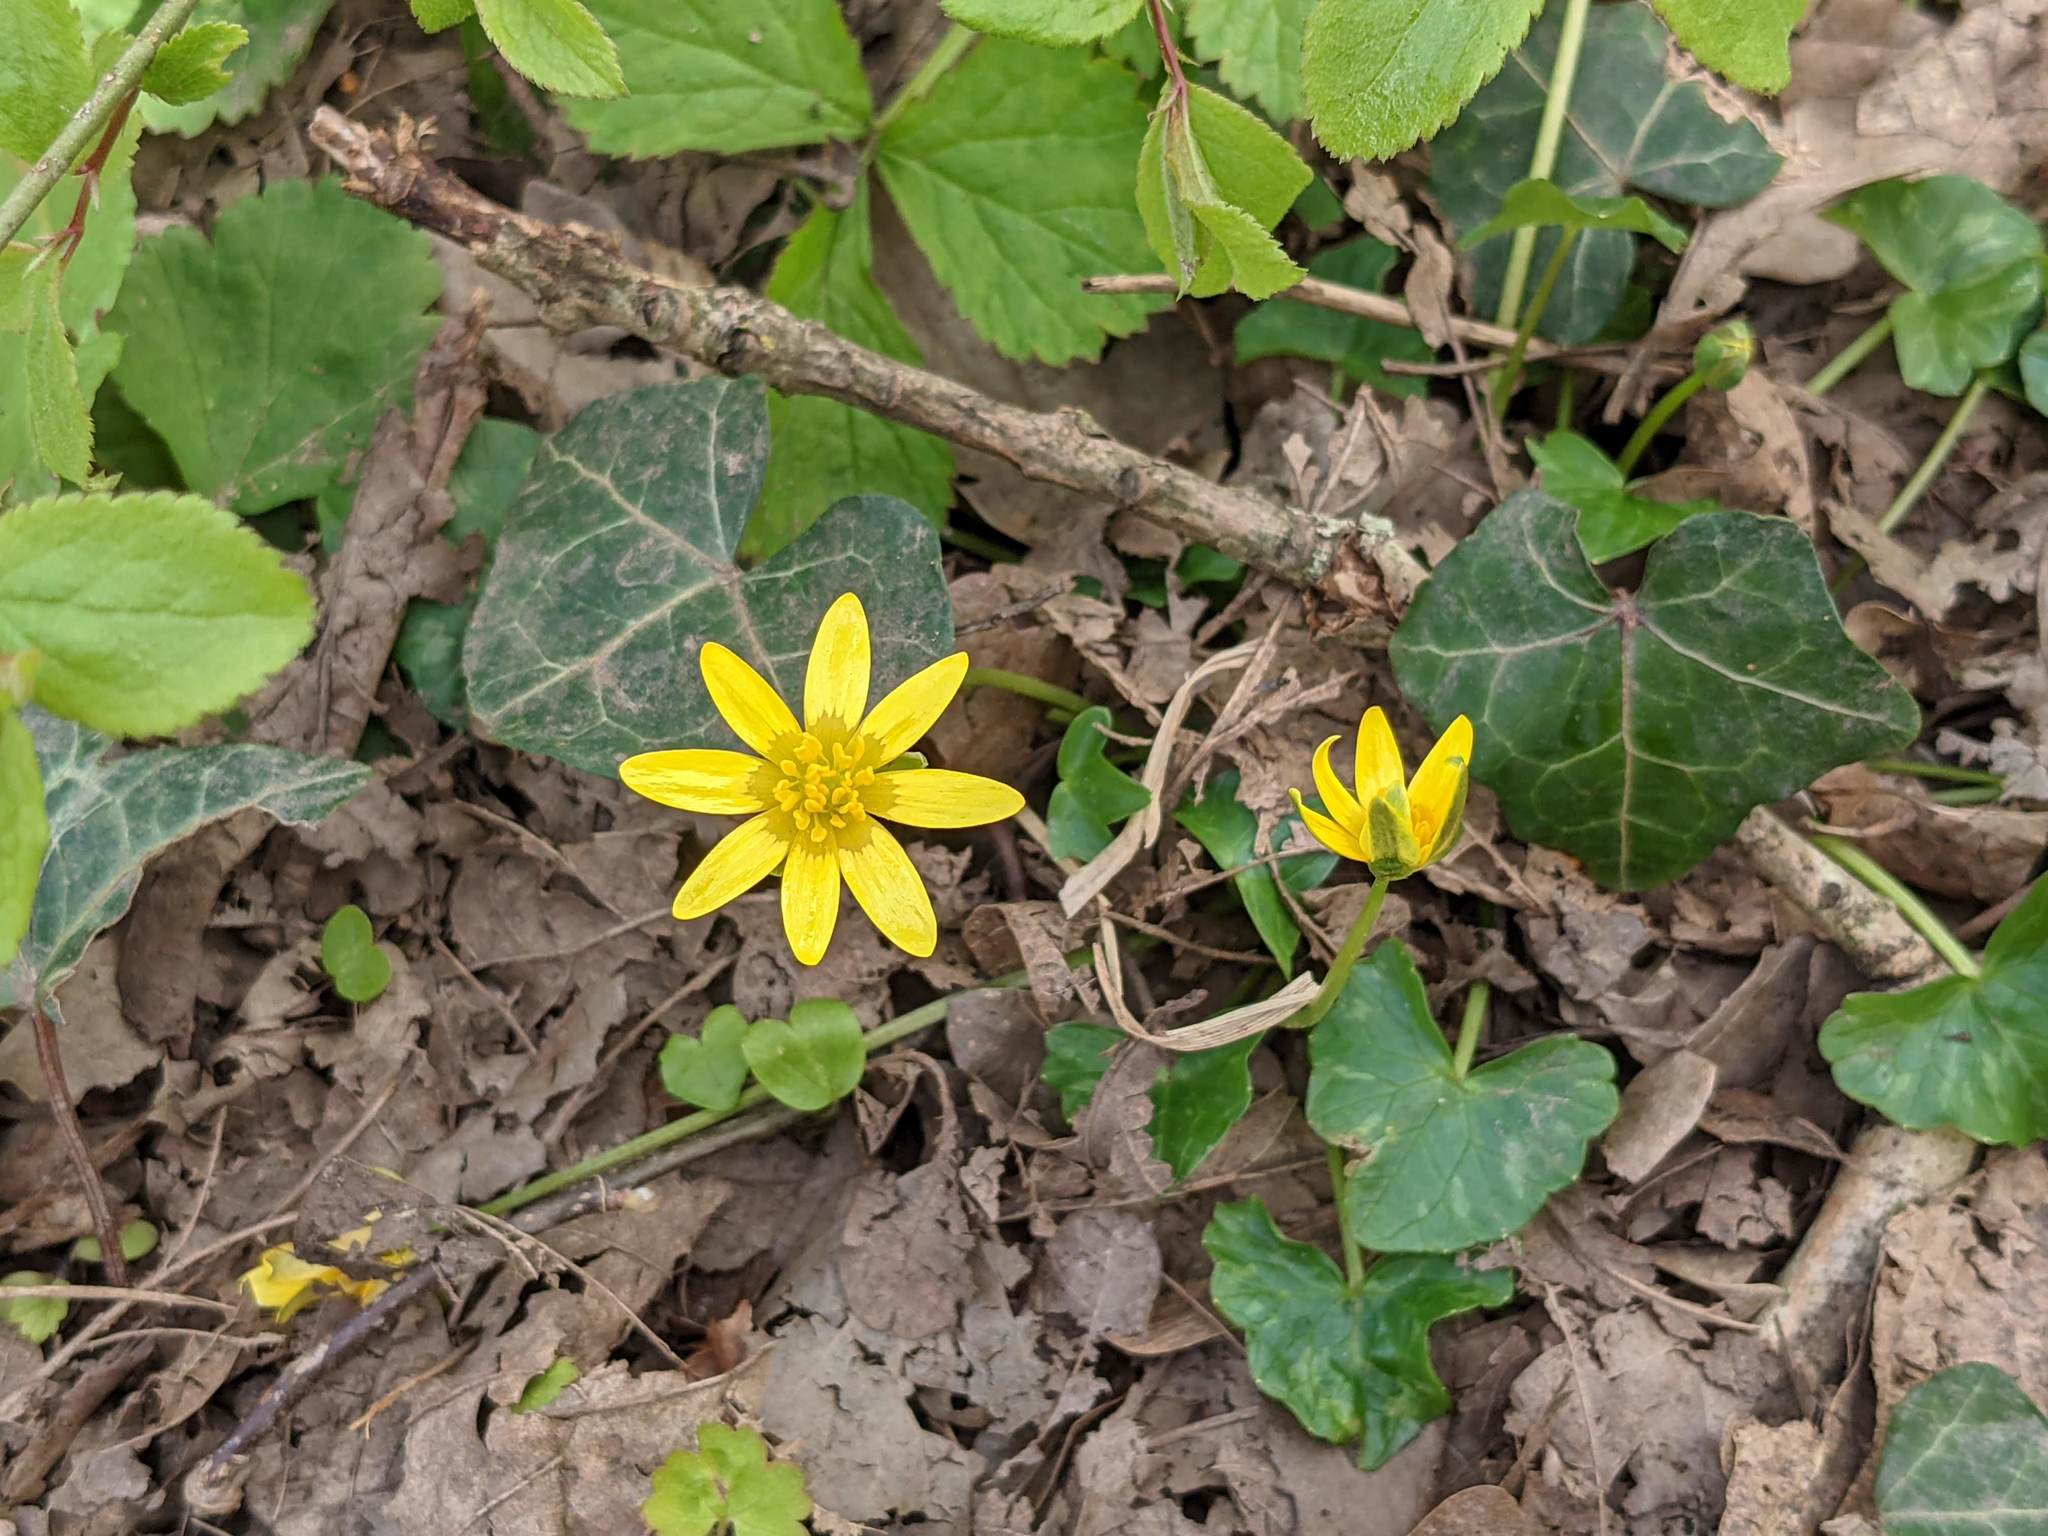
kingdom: Plantae
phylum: Tracheophyta
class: Magnoliopsida
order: Ranunculales
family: Ranunculaceae
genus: Ficaria
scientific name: Ficaria verna
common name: Lesser celandine
